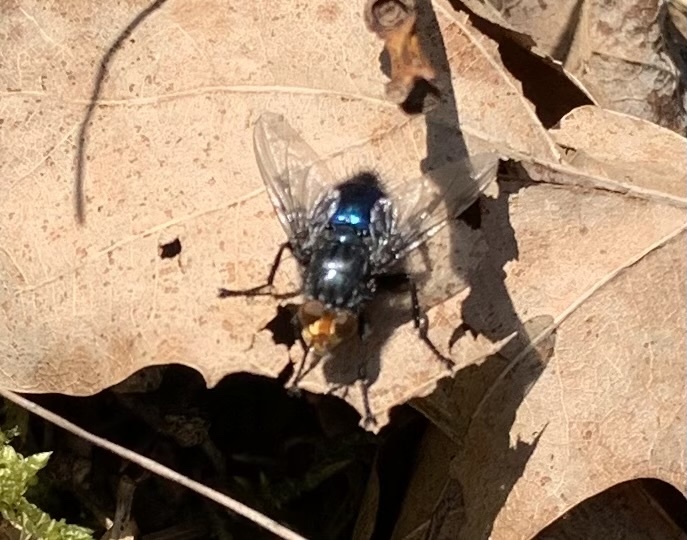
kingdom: Animalia
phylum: Arthropoda
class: Insecta
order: Diptera
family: Calliphoridae
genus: Cynomya
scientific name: Cynomya mortuorum
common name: Bluebottle blow fly
